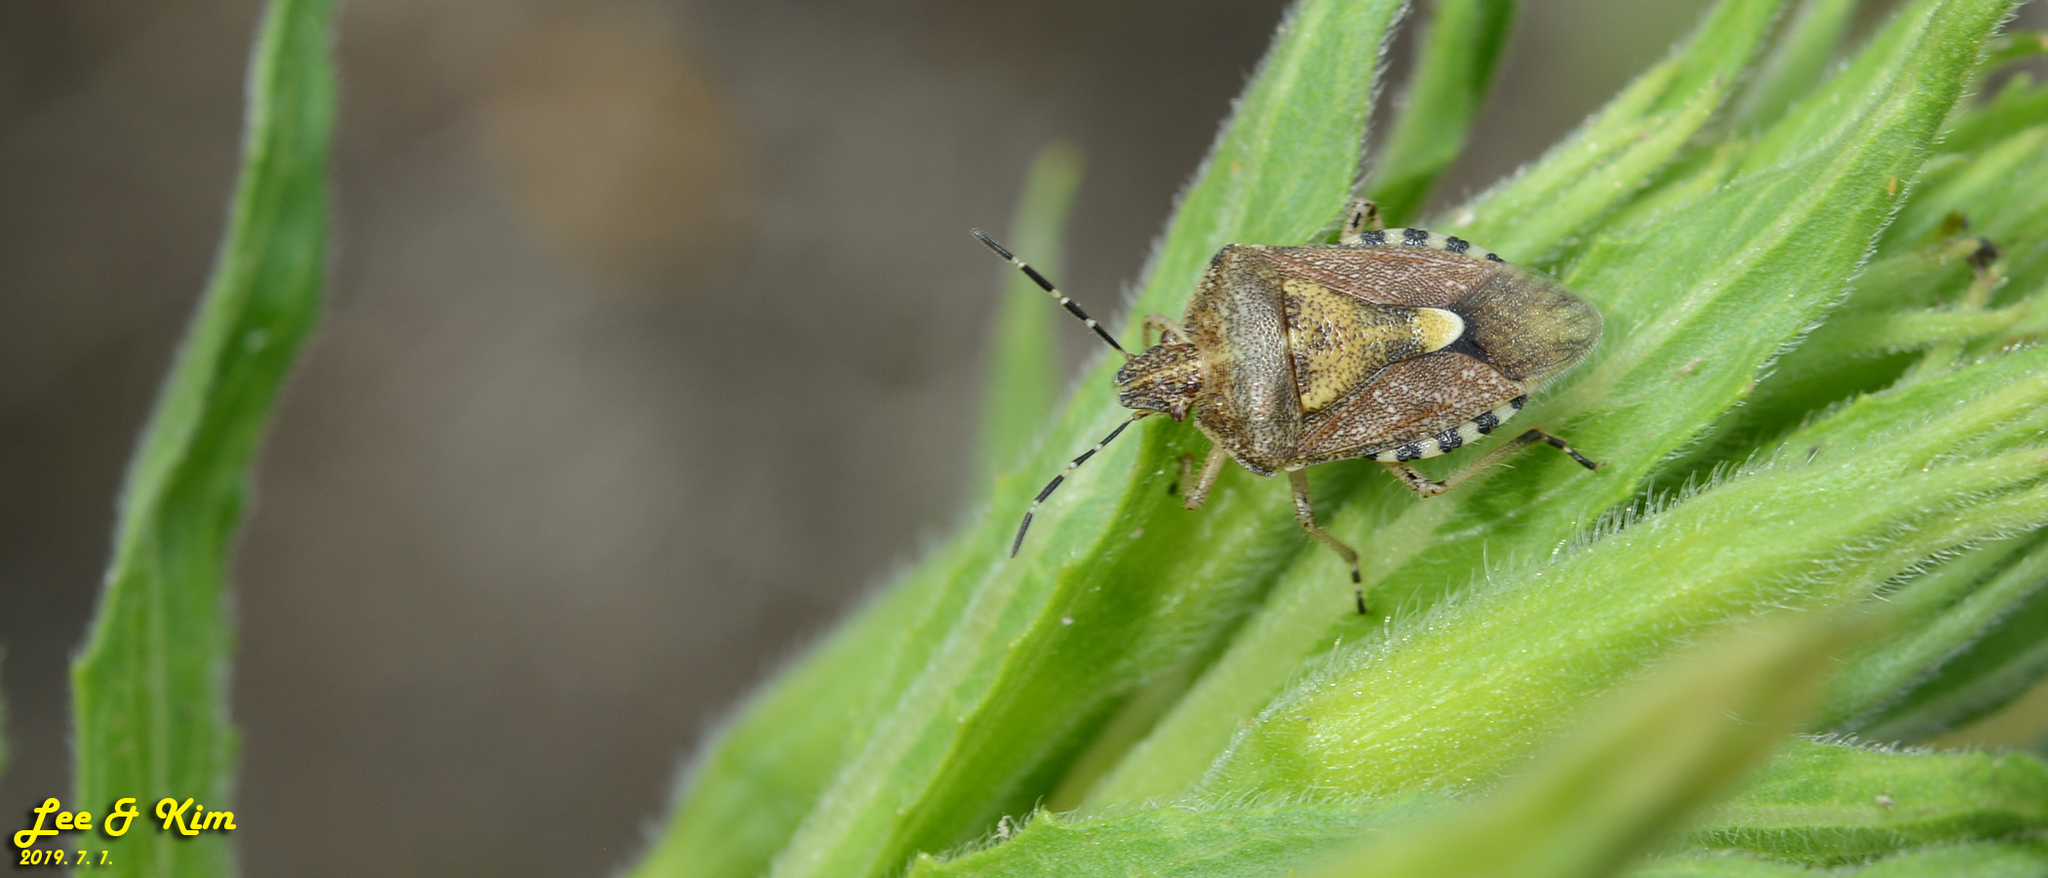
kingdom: Animalia
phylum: Arthropoda
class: Insecta
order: Hemiptera
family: Pentatomidae
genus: Dolycoris
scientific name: Dolycoris baccarum
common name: Sloe bug
